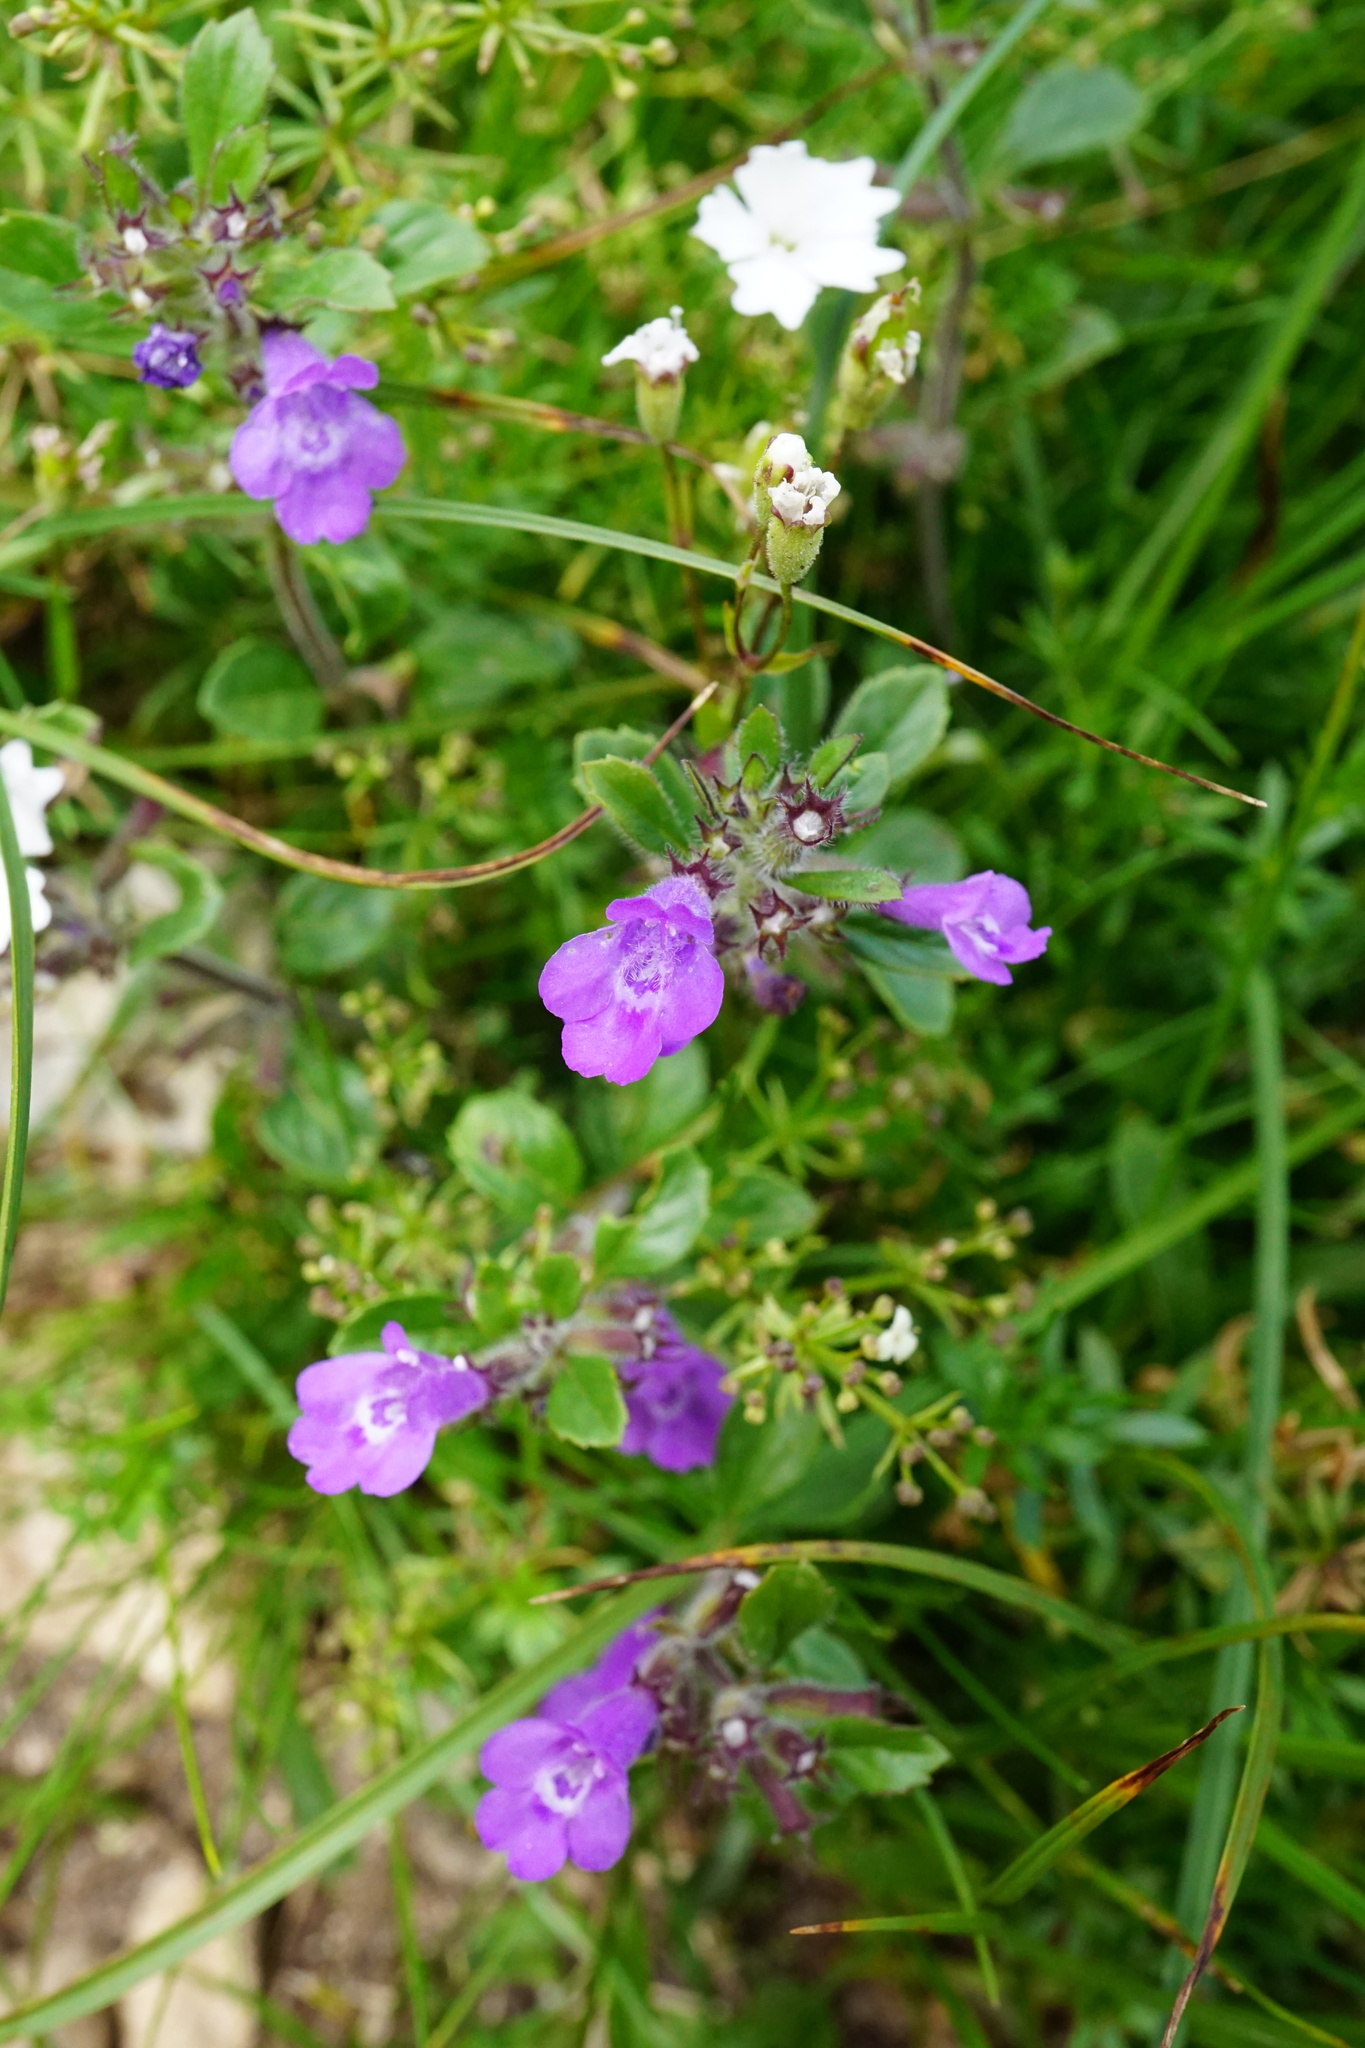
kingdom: Plantae
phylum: Tracheophyta
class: Magnoliopsida
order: Lamiales
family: Lamiaceae
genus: Clinopodium
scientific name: Clinopodium alpinum
